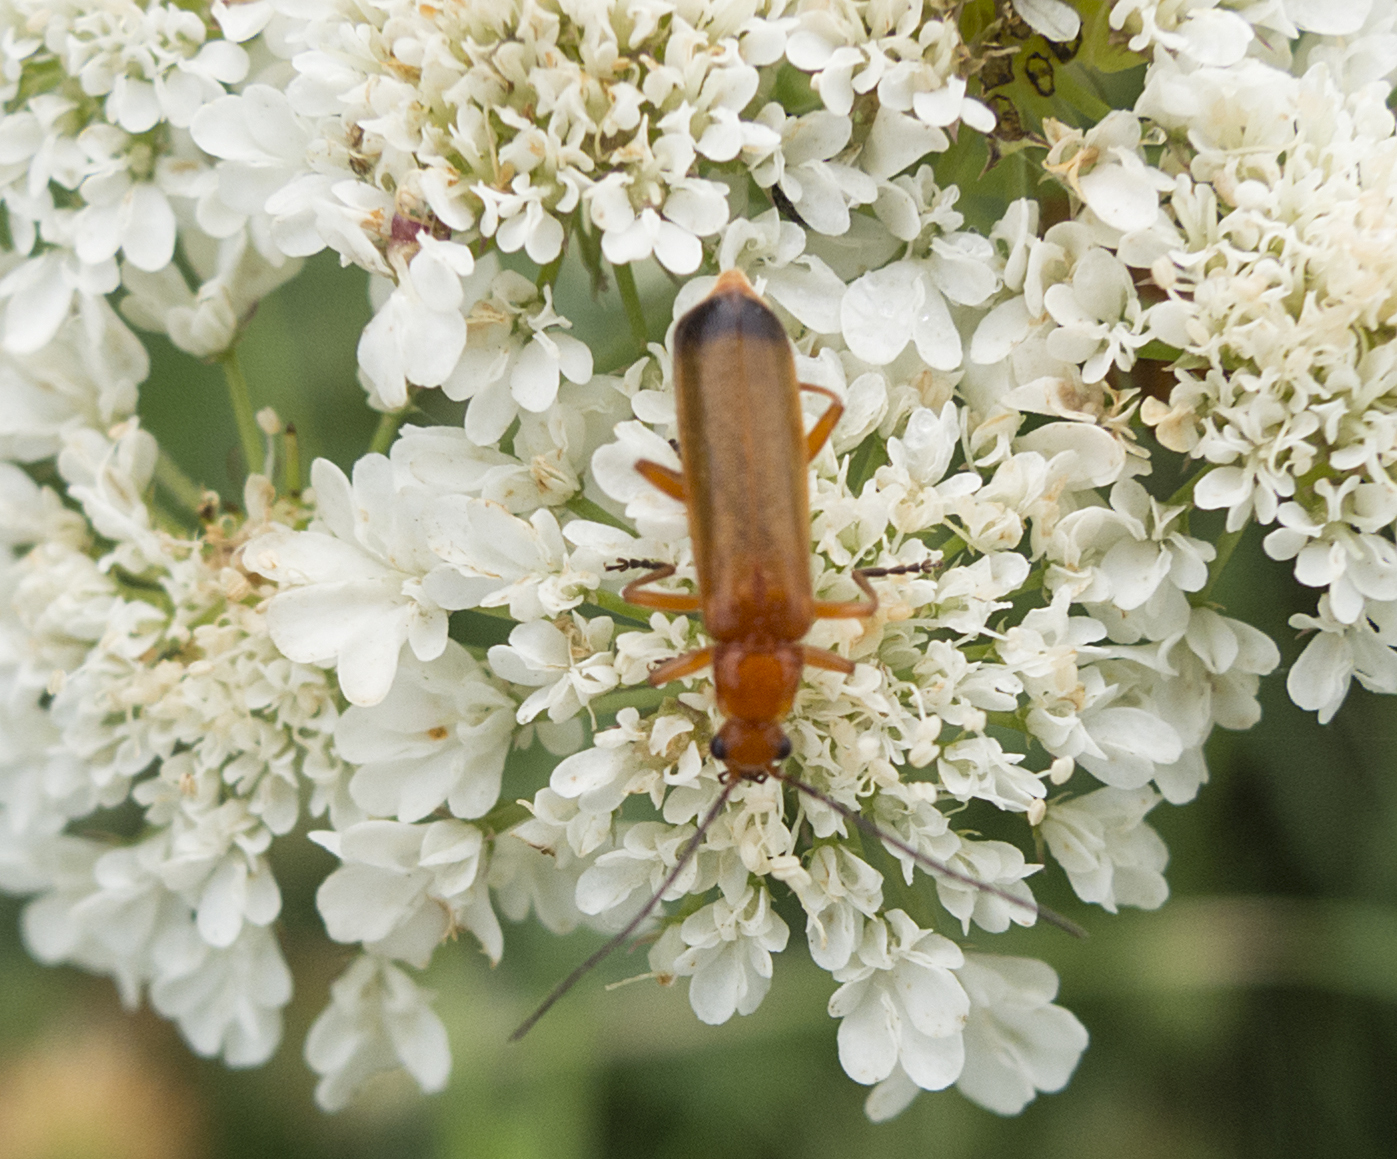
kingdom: Animalia
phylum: Arthropoda
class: Insecta
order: Coleoptera
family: Cantharidae
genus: Rhagonycha
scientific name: Rhagonycha fulva
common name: Common red soldier beetle
